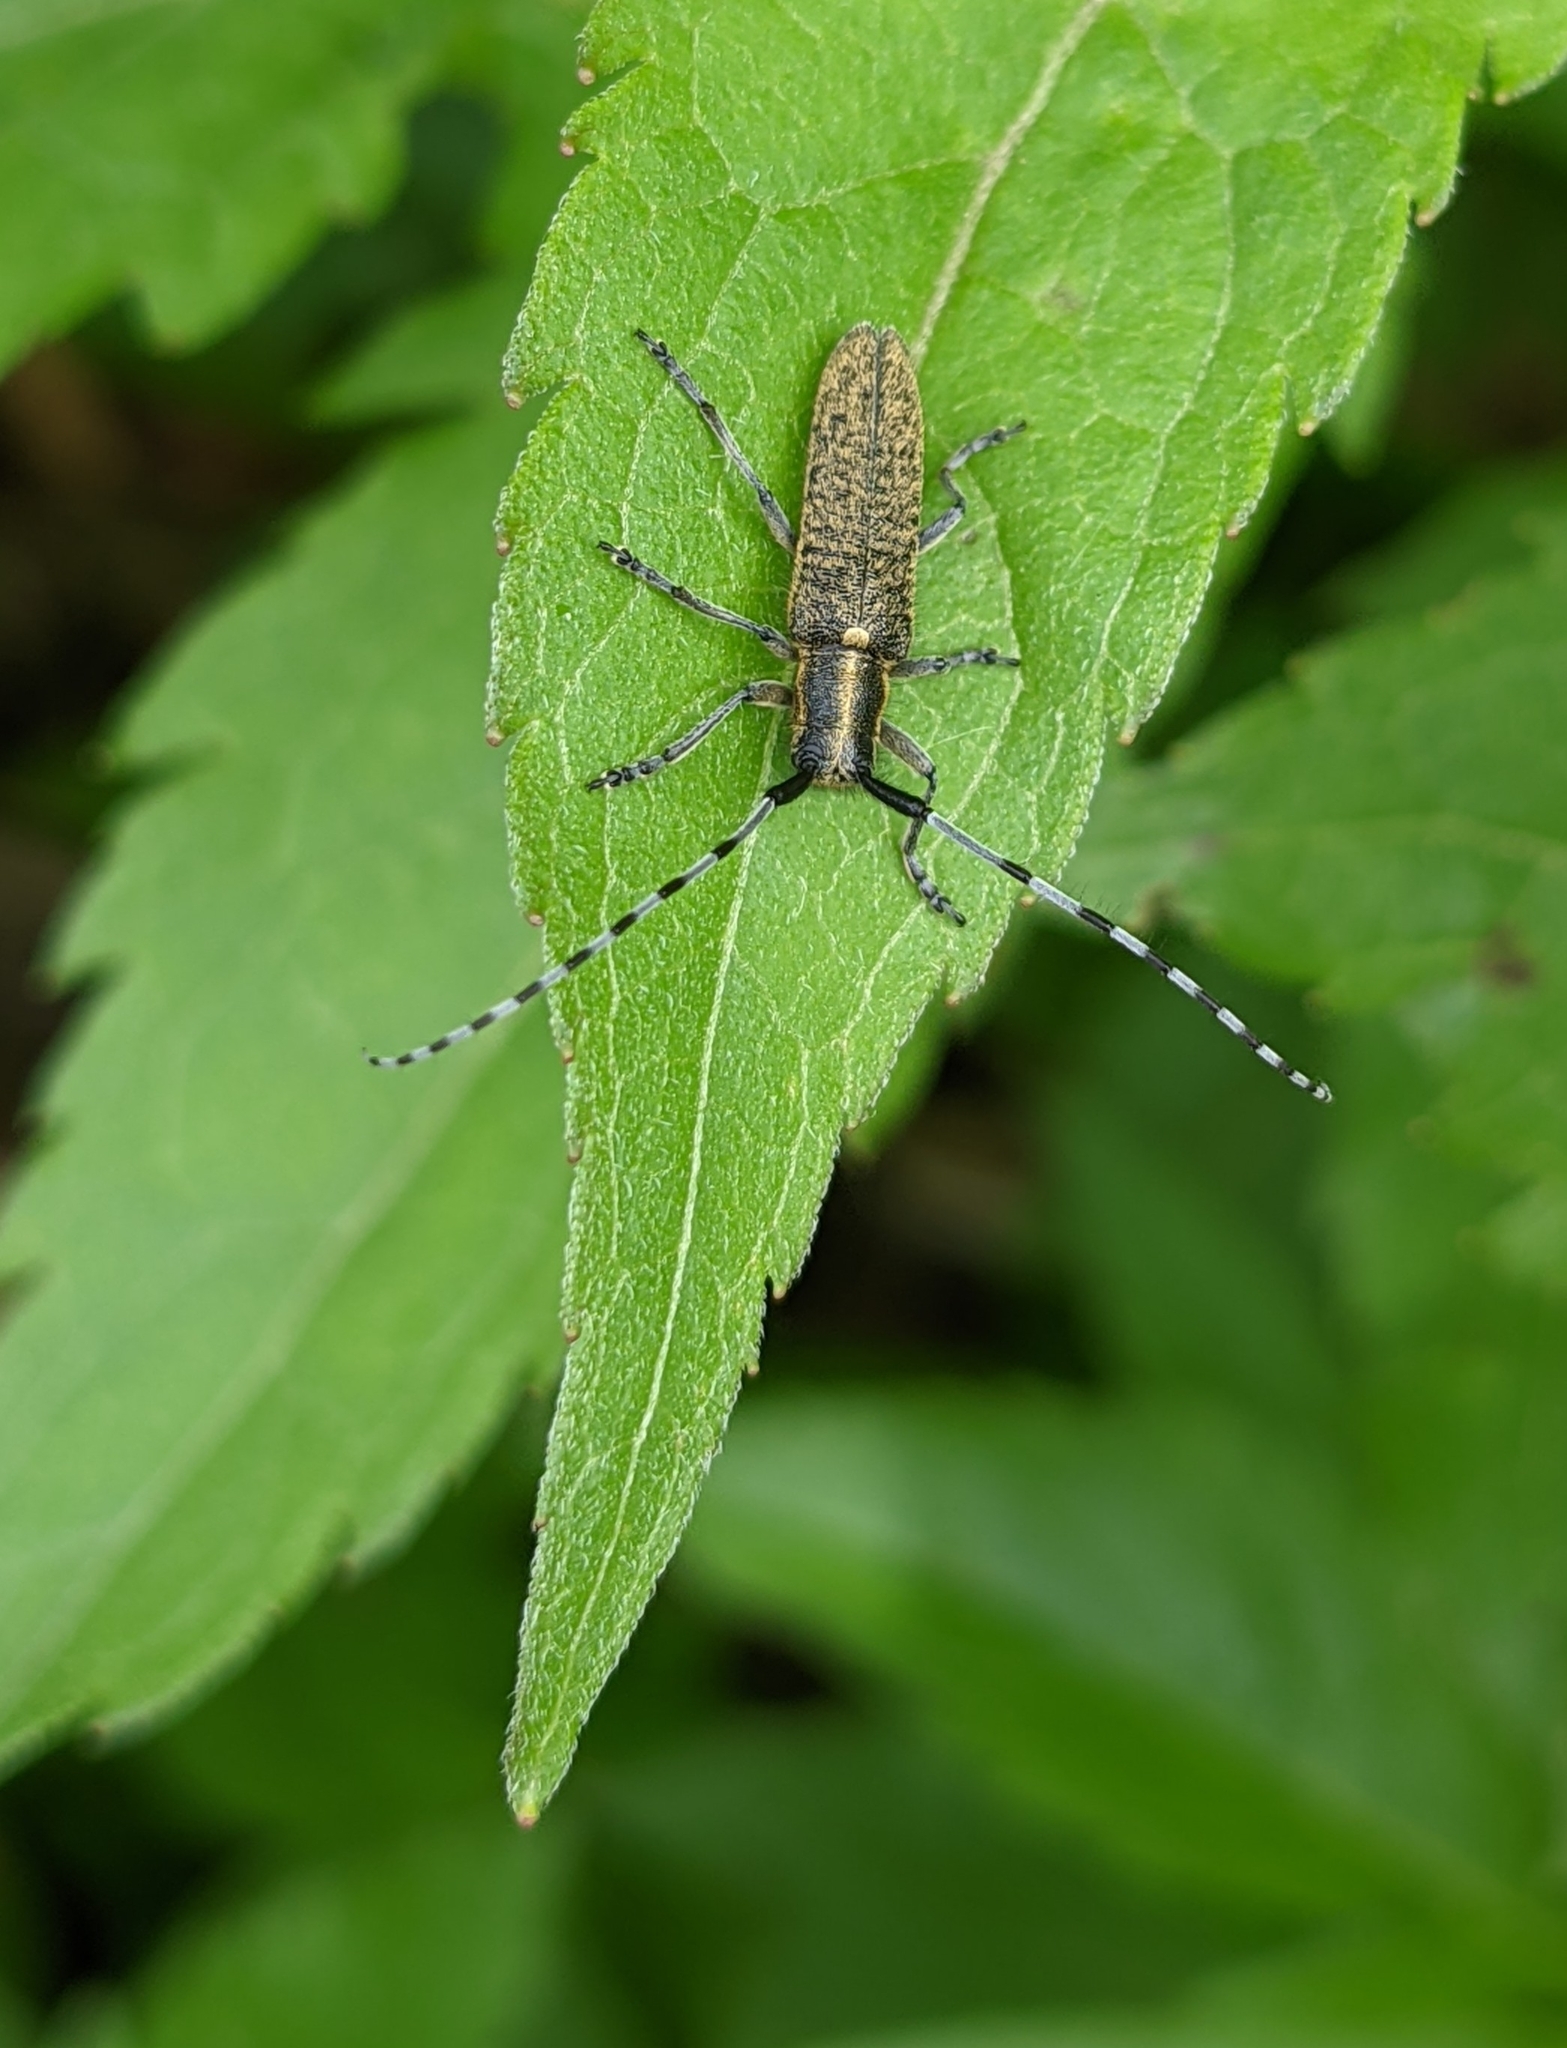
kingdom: Animalia
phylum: Arthropoda
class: Insecta
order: Coleoptera
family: Cerambycidae
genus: Agapanthia
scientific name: Agapanthia villosoviridescens
